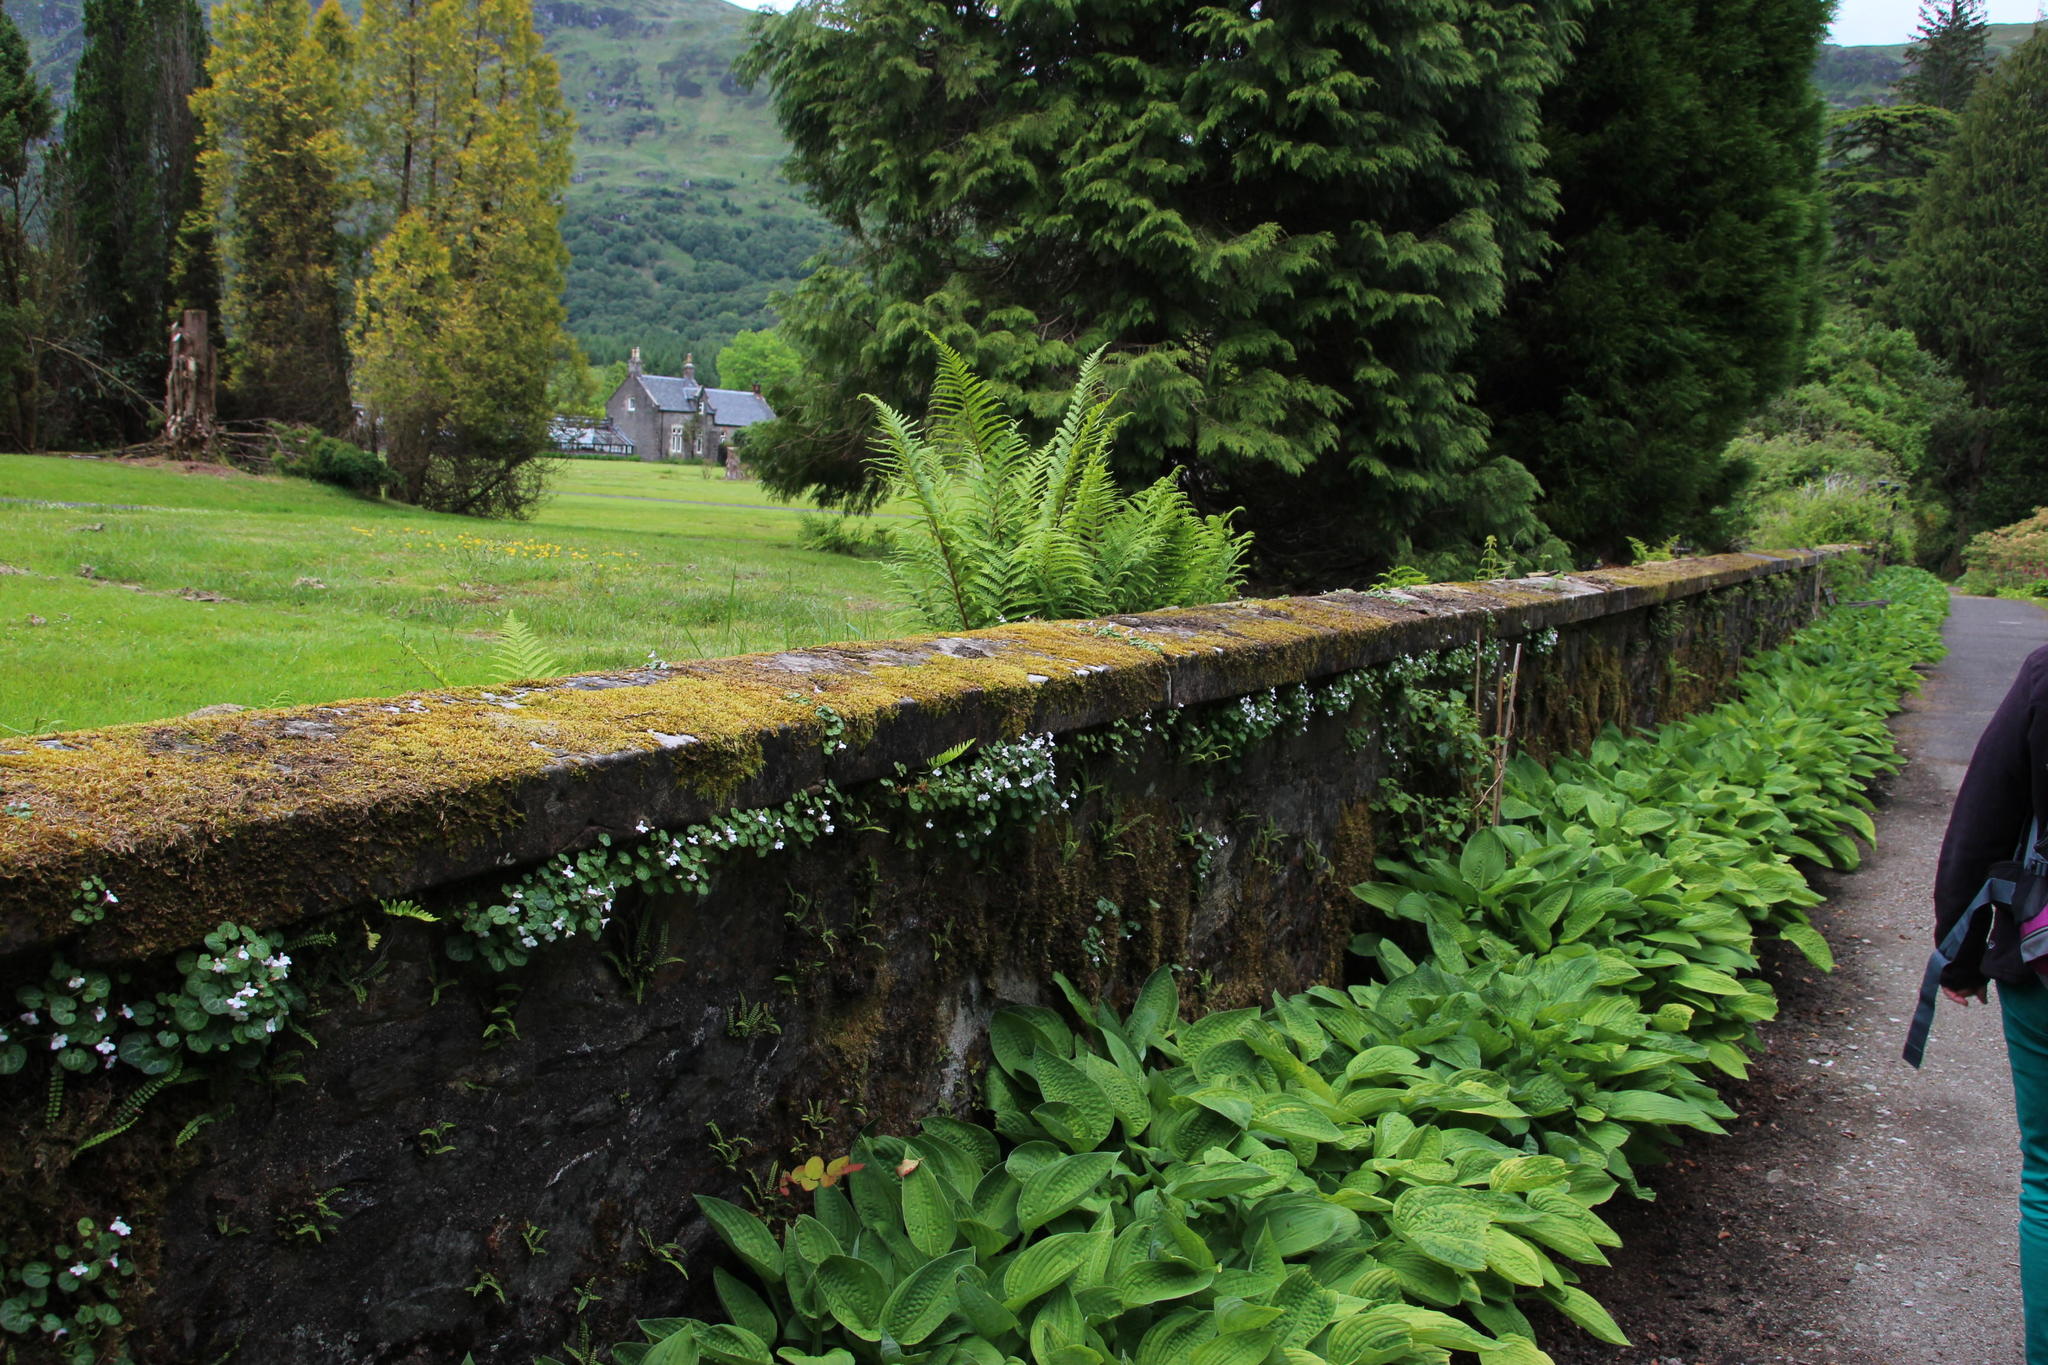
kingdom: Plantae
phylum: Tracheophyta
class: Magnoliopsida
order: Lamiales
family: Plantaginaceae
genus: Cymbalaria
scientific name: Cymbalaria hepaticifolia
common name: Corsican toadflax
